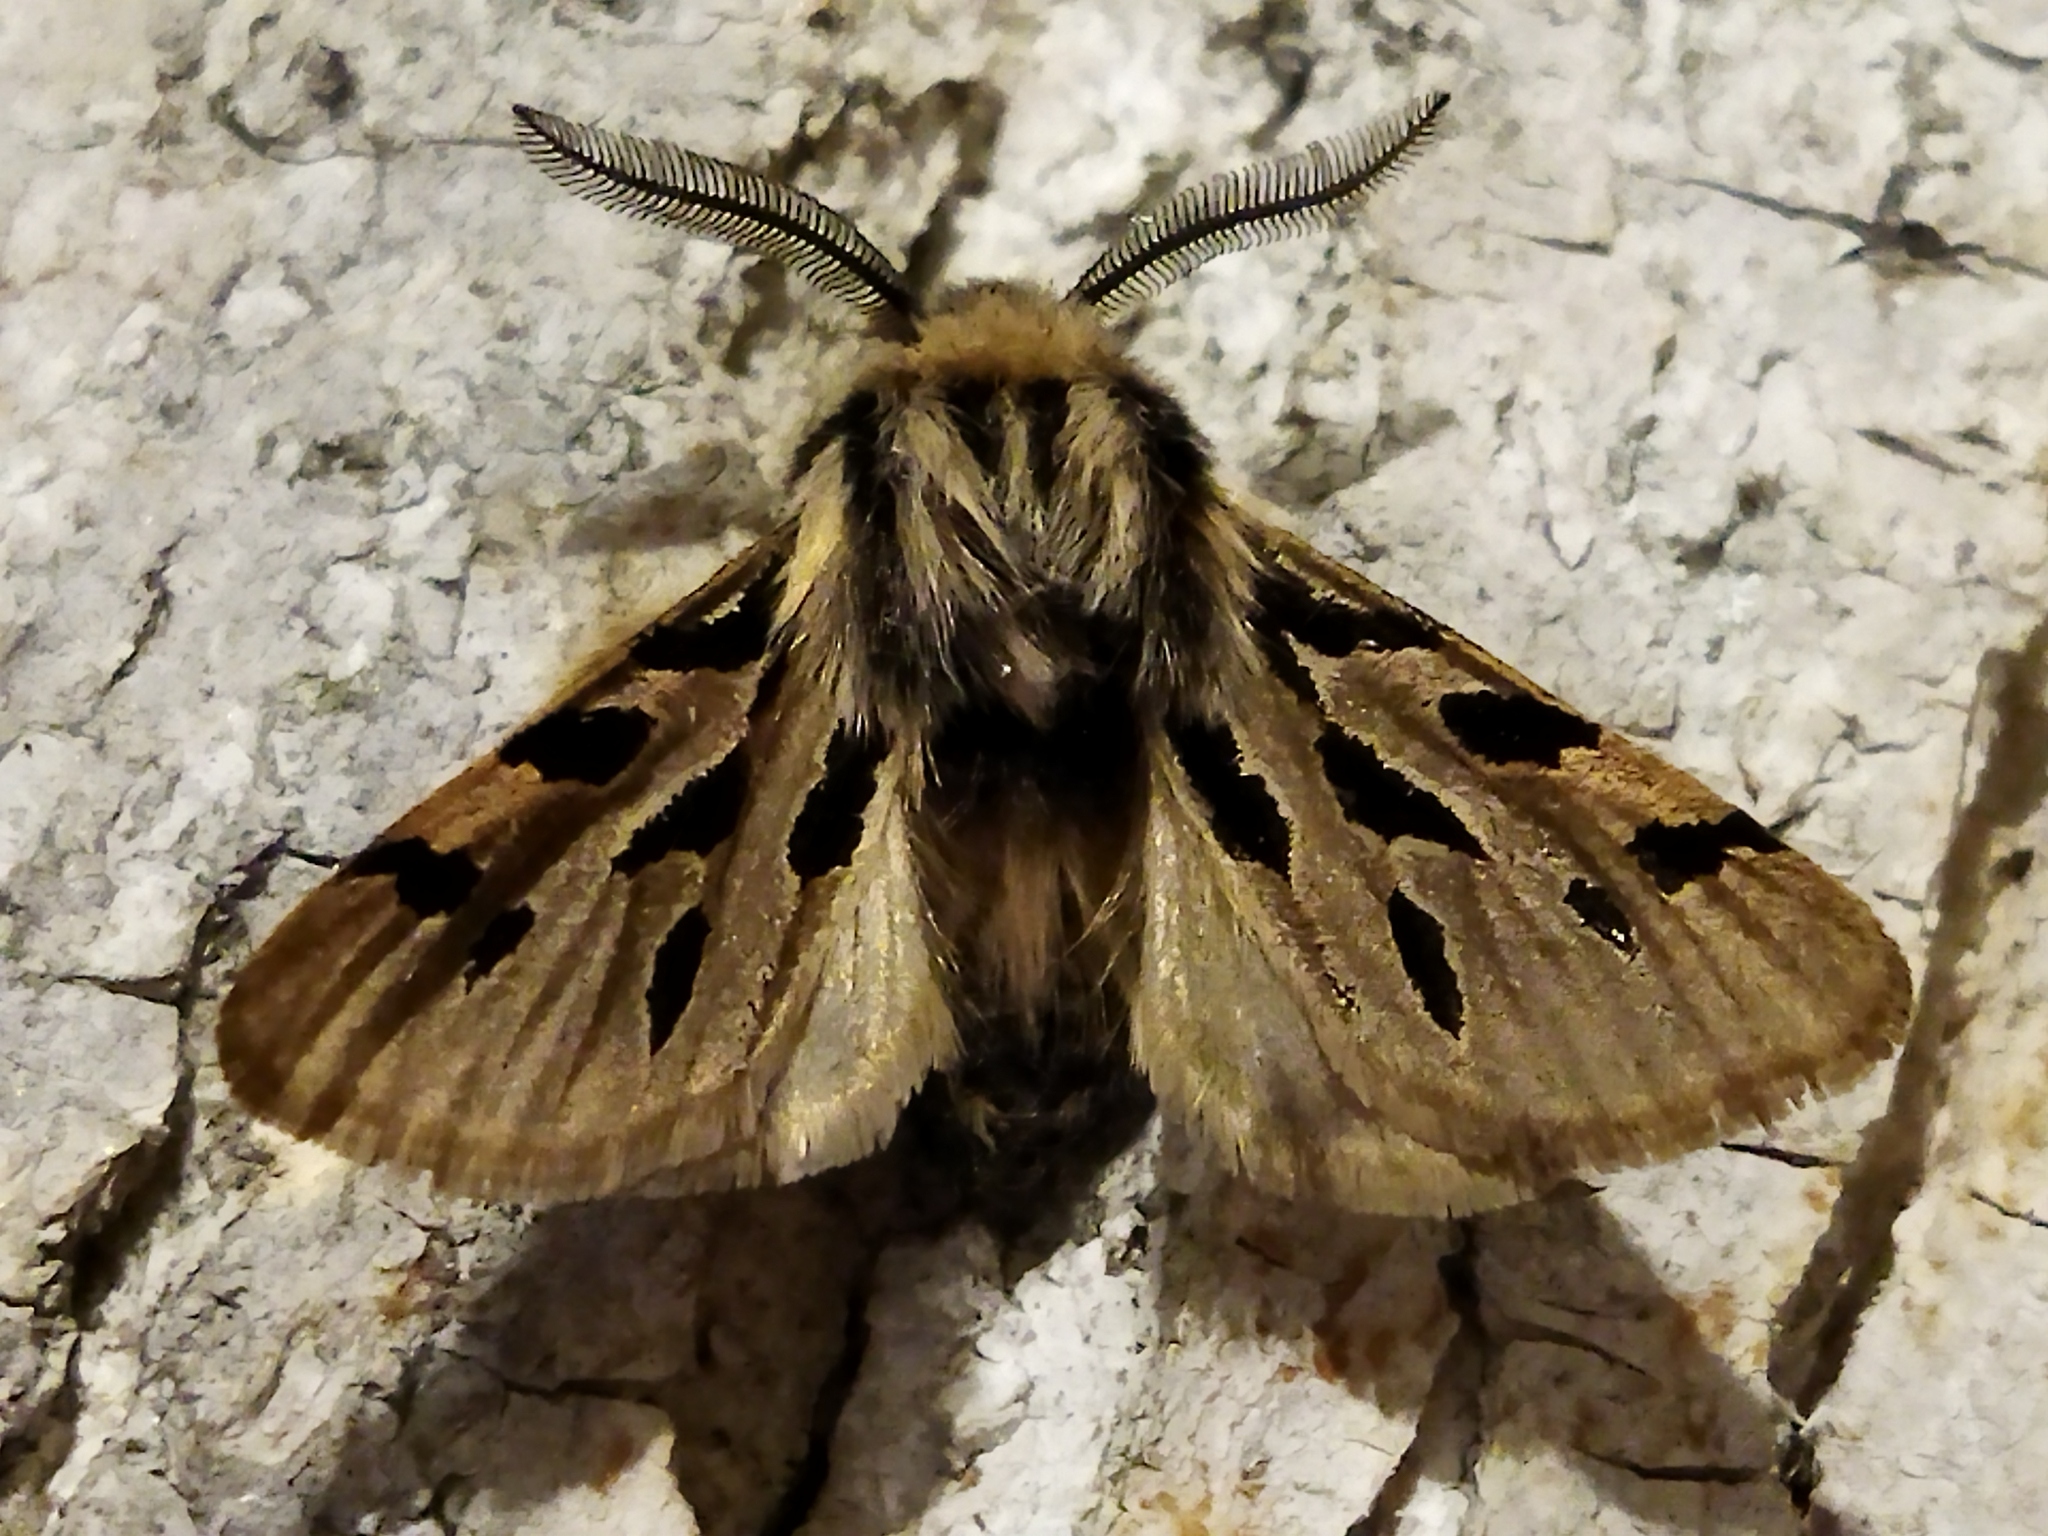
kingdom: Animalia
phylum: Arthropoda
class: Insecta
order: Lepidoptera
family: Erebidae
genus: Ocnogyna
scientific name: Ocnogyna parasita
